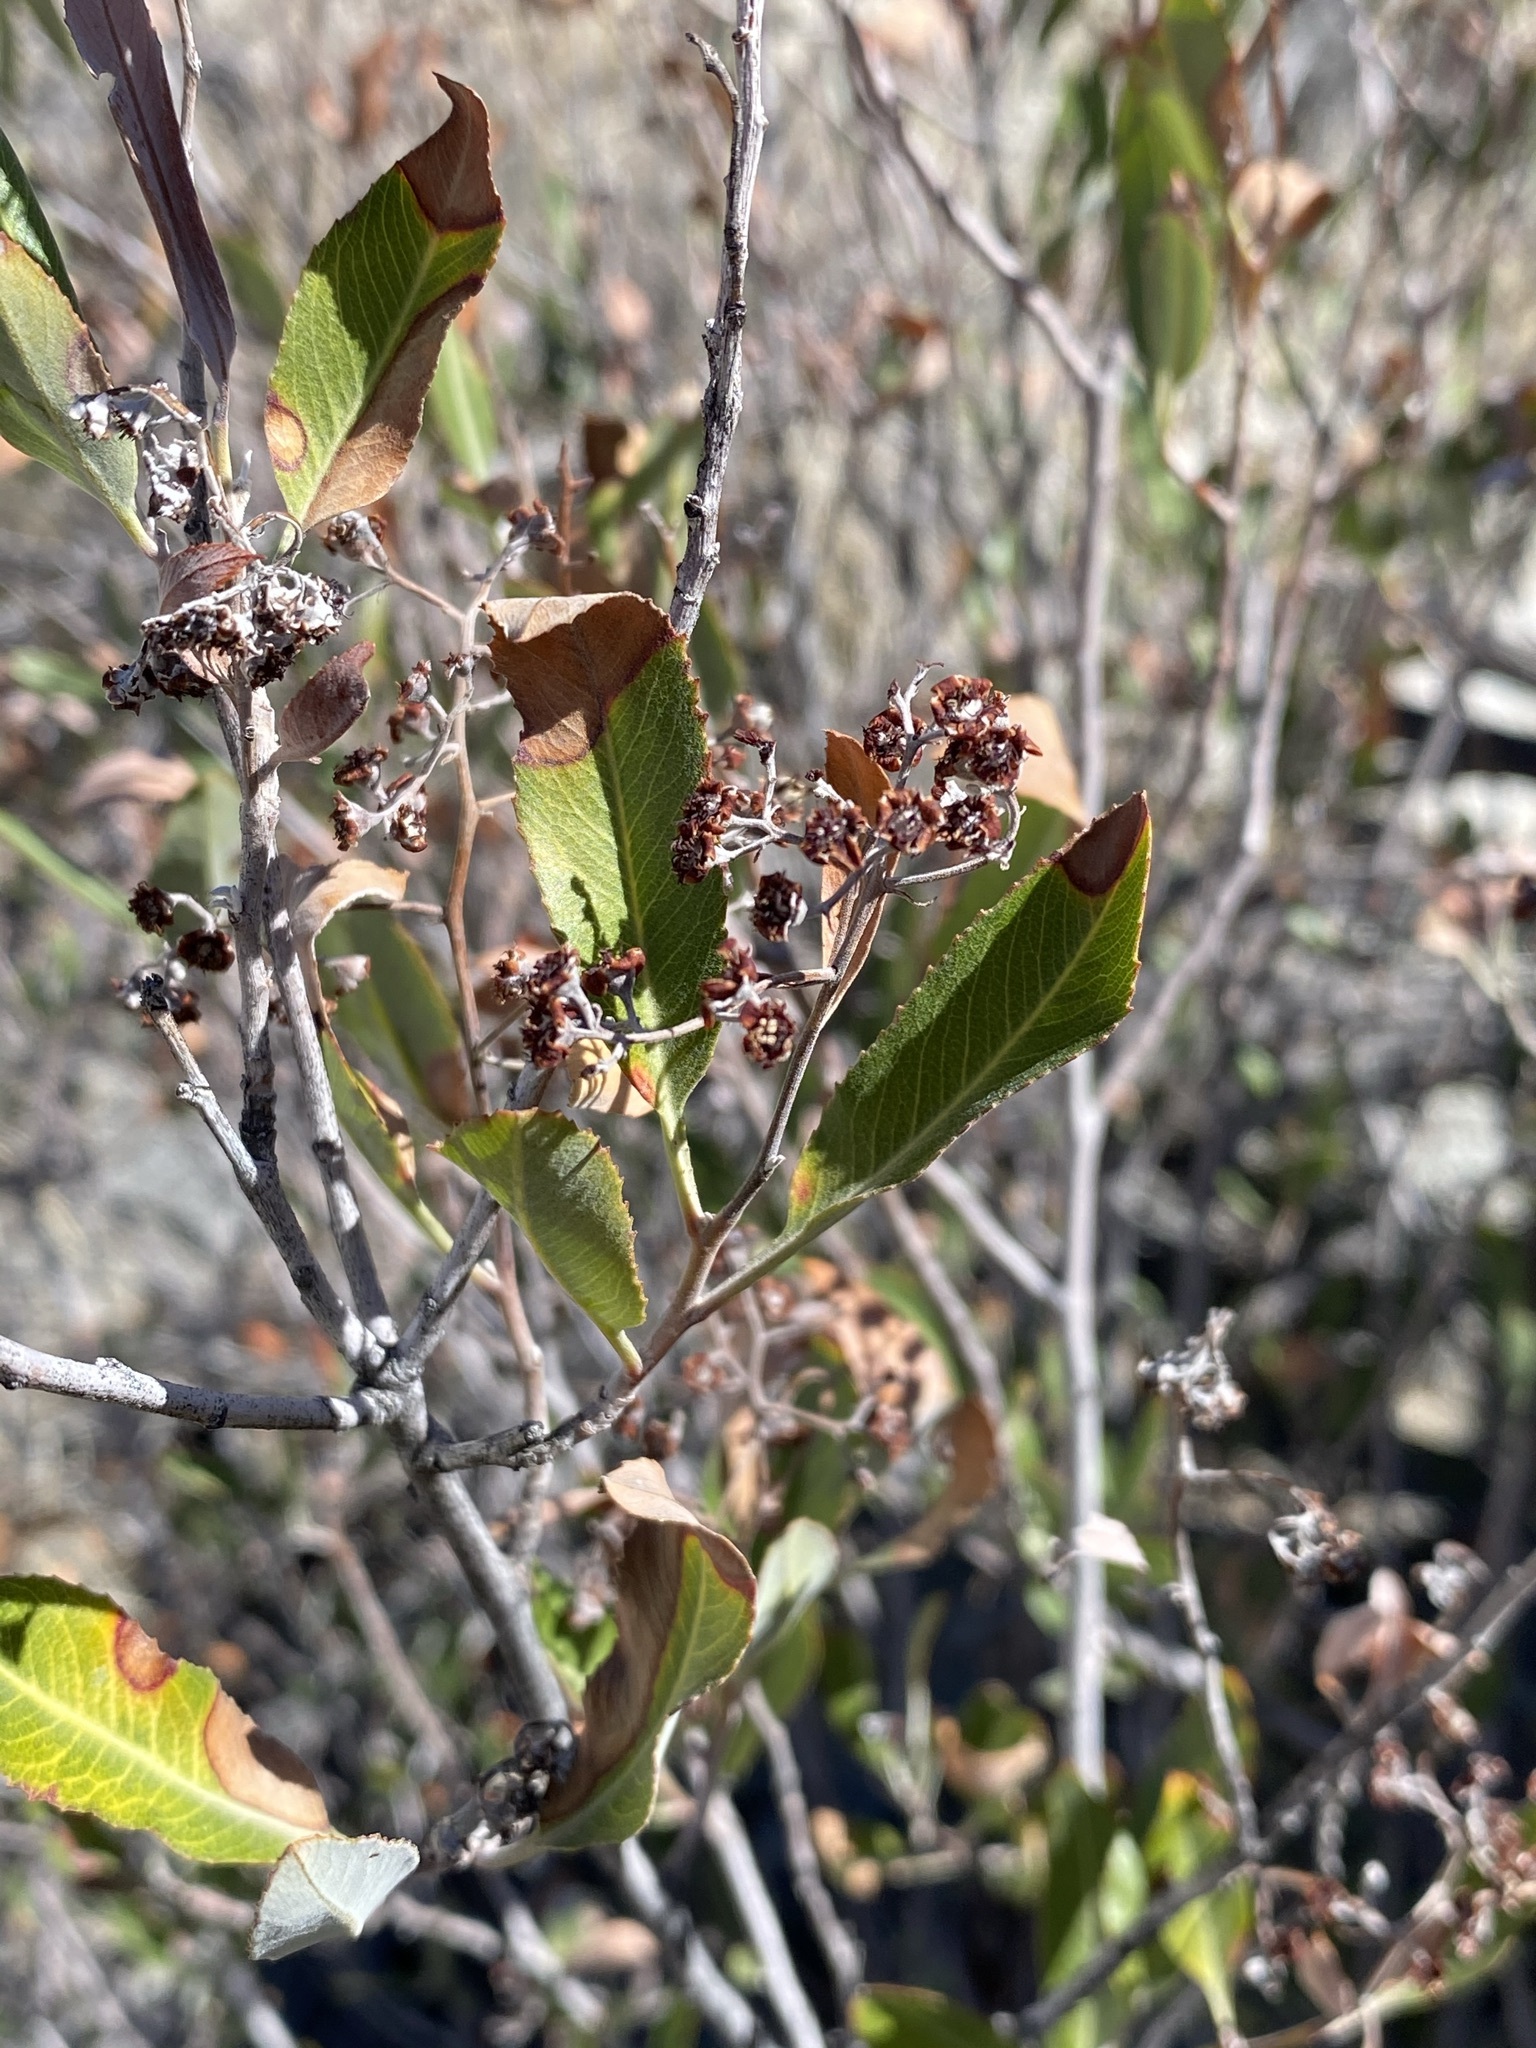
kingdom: Plantae
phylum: Tracheophyta
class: Magnoliopsida
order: Rosales
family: Rosaceae
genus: Vauquelinia
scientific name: Vauquelinia californica
